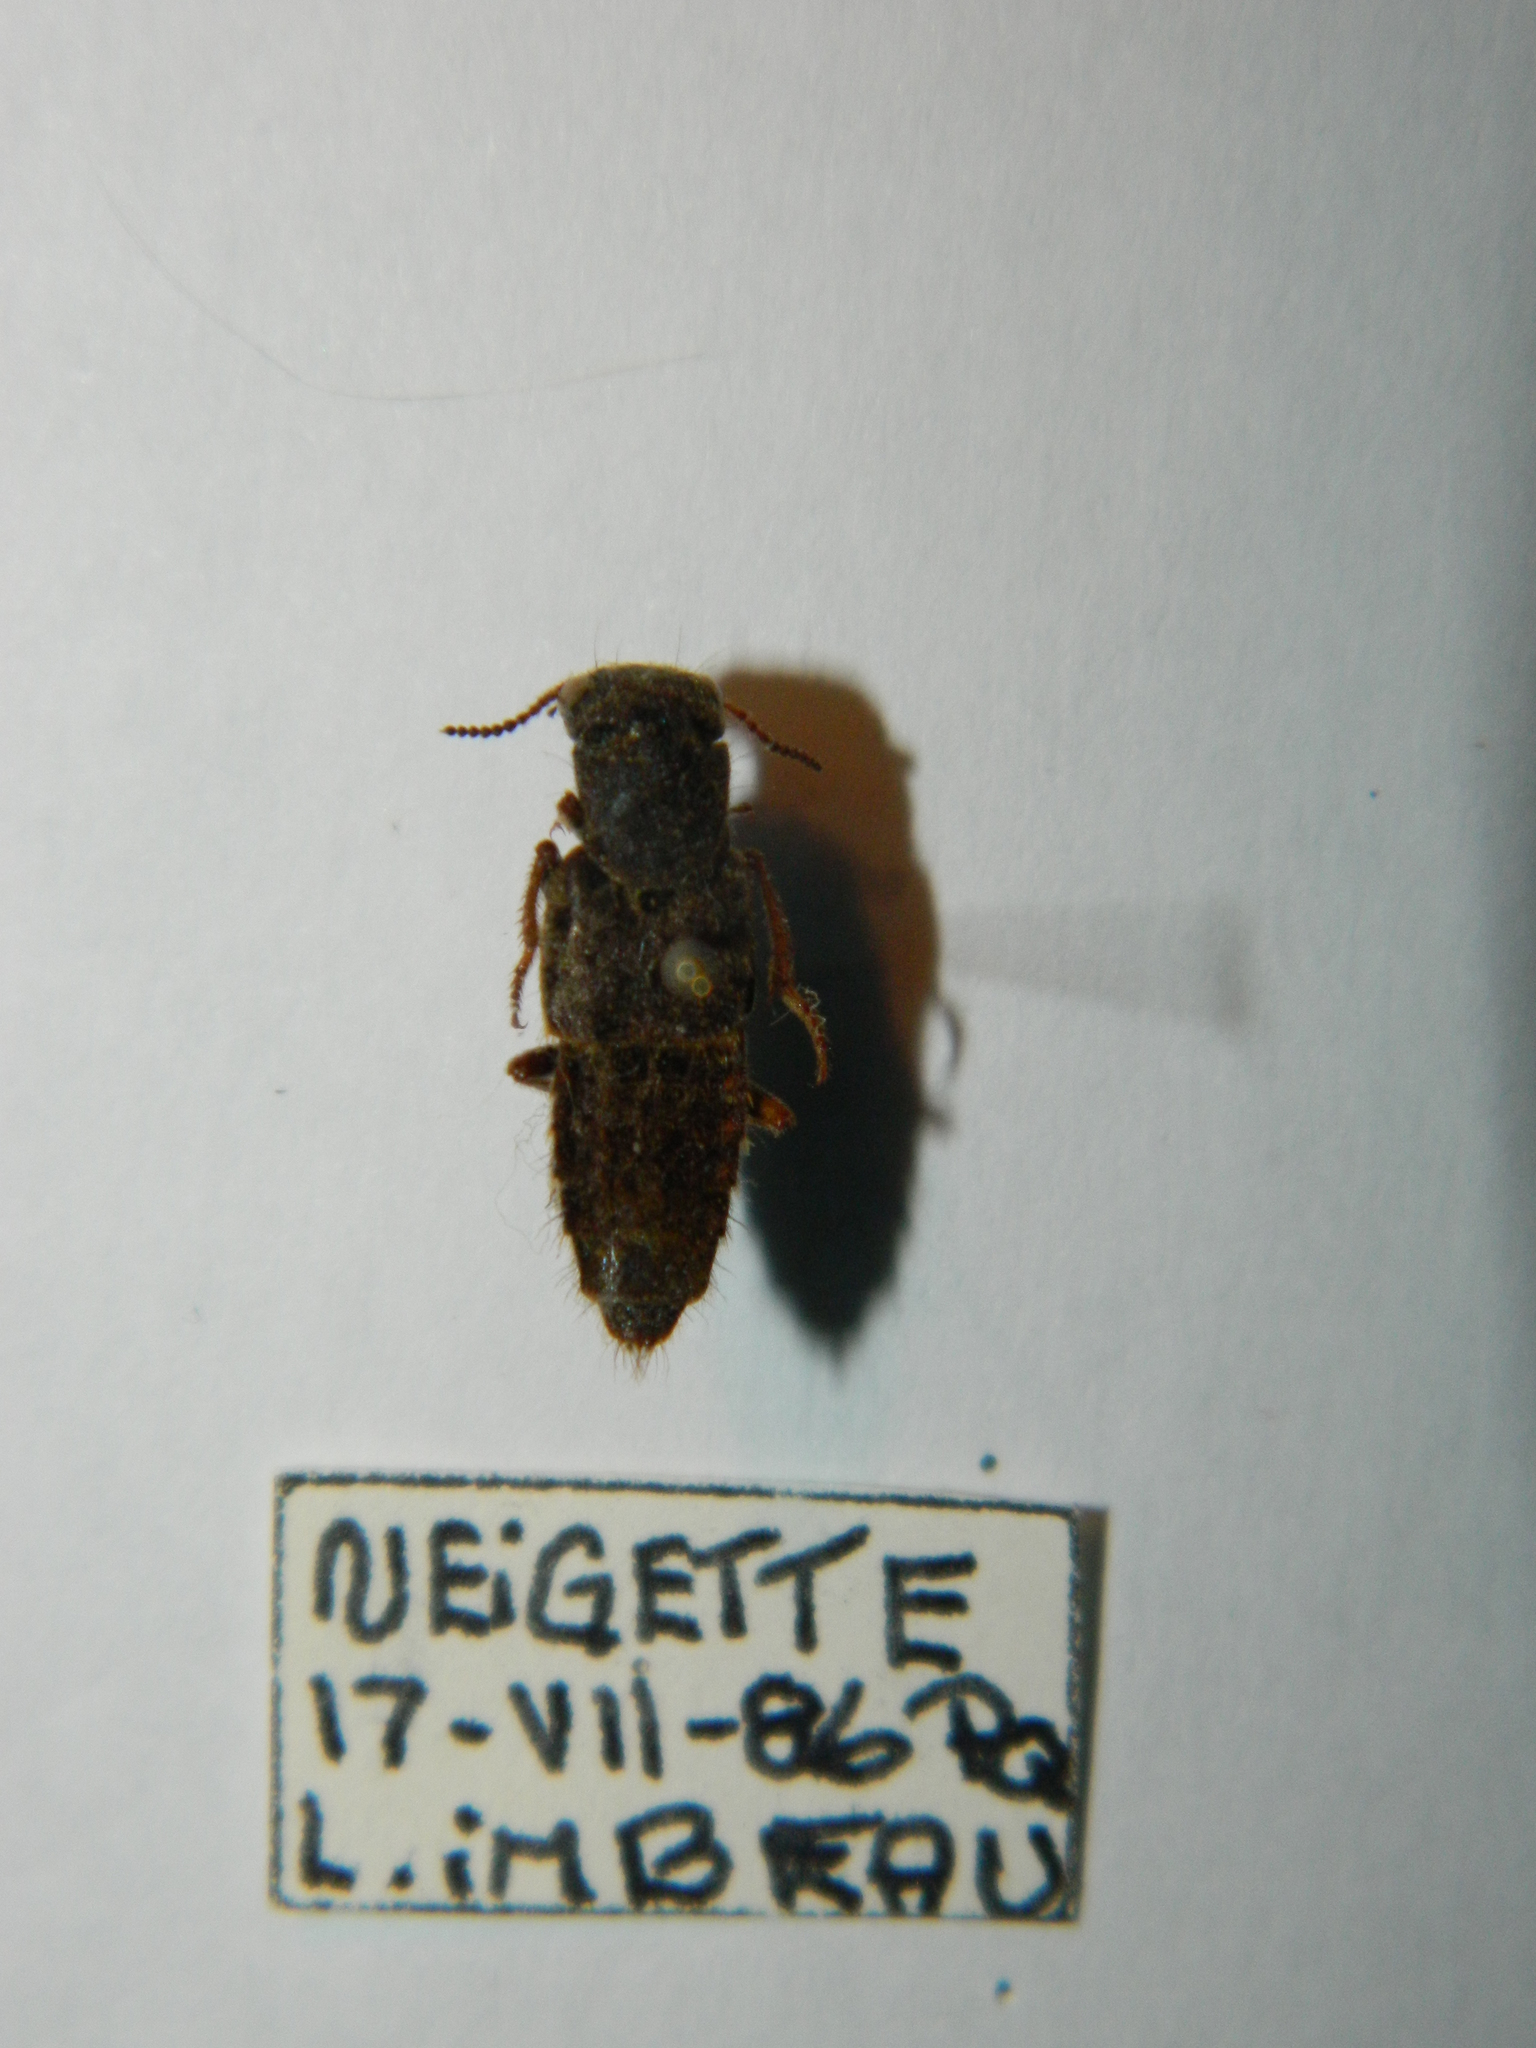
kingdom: Animalia
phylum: Arthropoda
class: Insecta
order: Coleoptera
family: Staphylinidae
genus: Ontholestes
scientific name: Ontholestes cingulatus
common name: Gold-and-brown rove beetle
